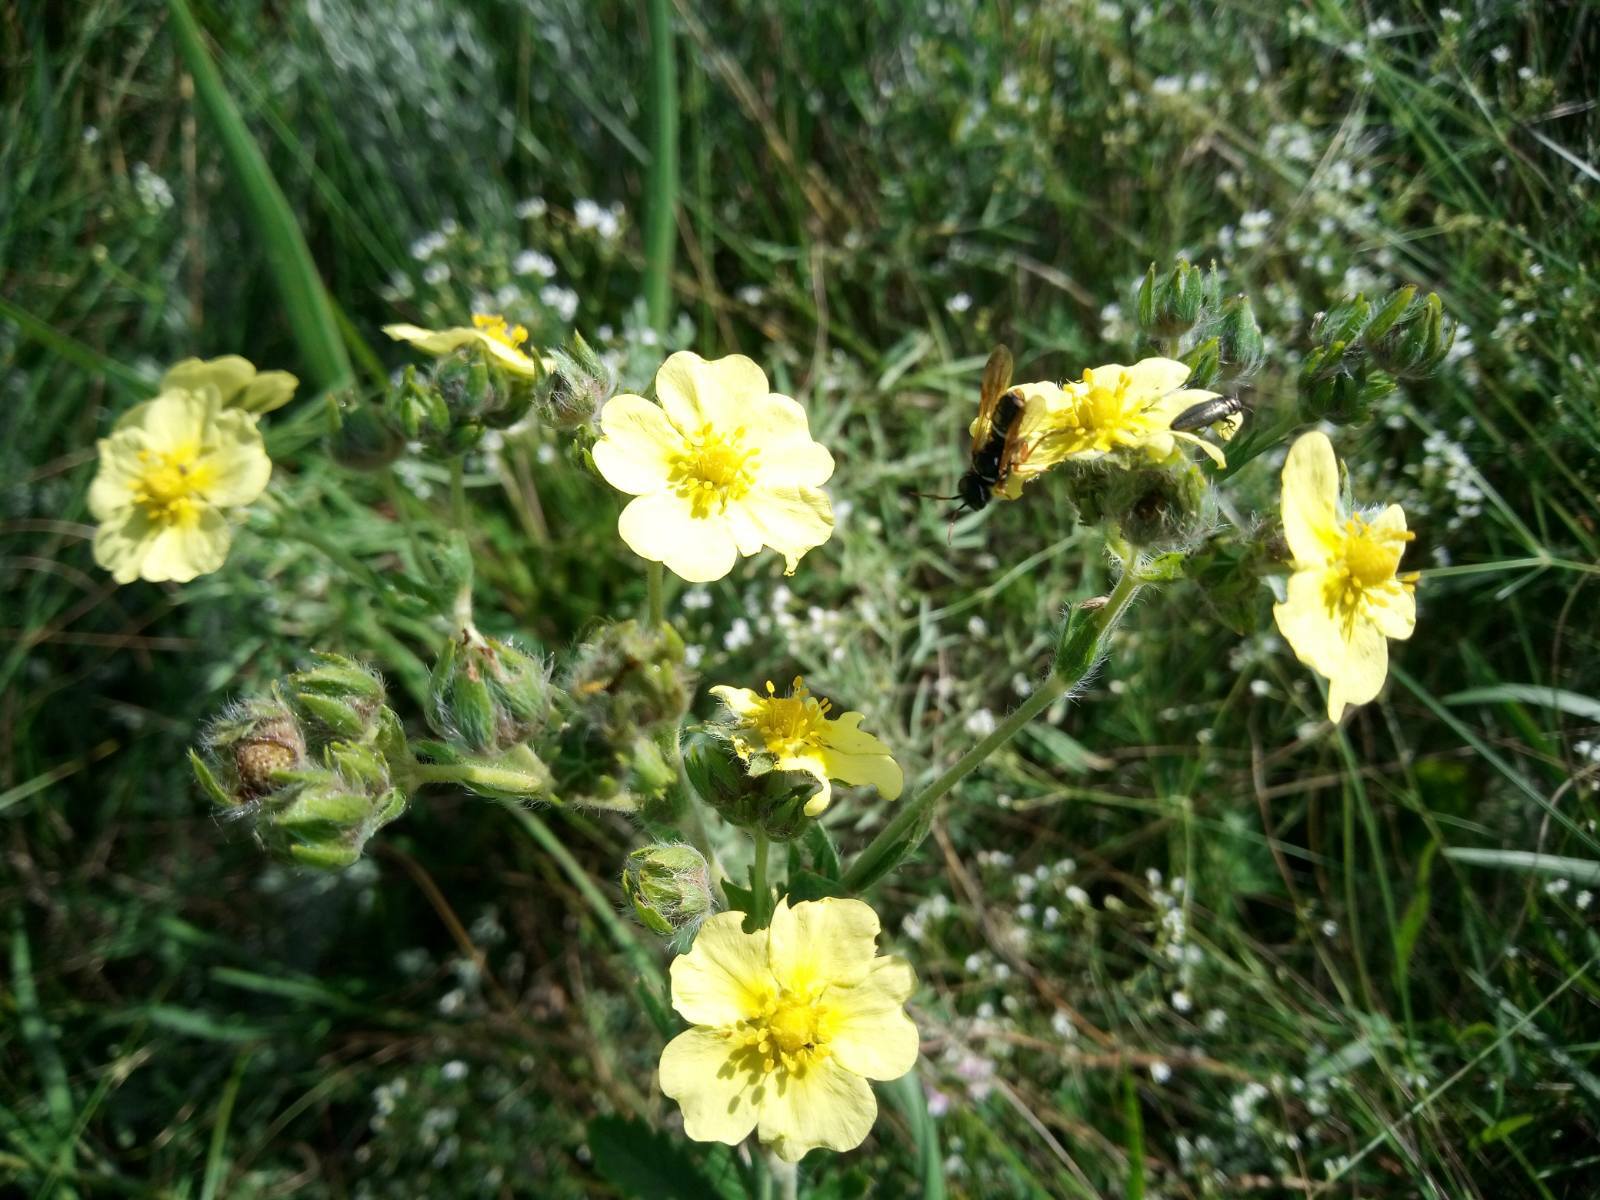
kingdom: Plantae
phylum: Tracheophyta
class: Magnoliopsida
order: Rosales
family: Rosaceae
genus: Potentilla
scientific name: Potentilla recta
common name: Sulphur cinquefoil
